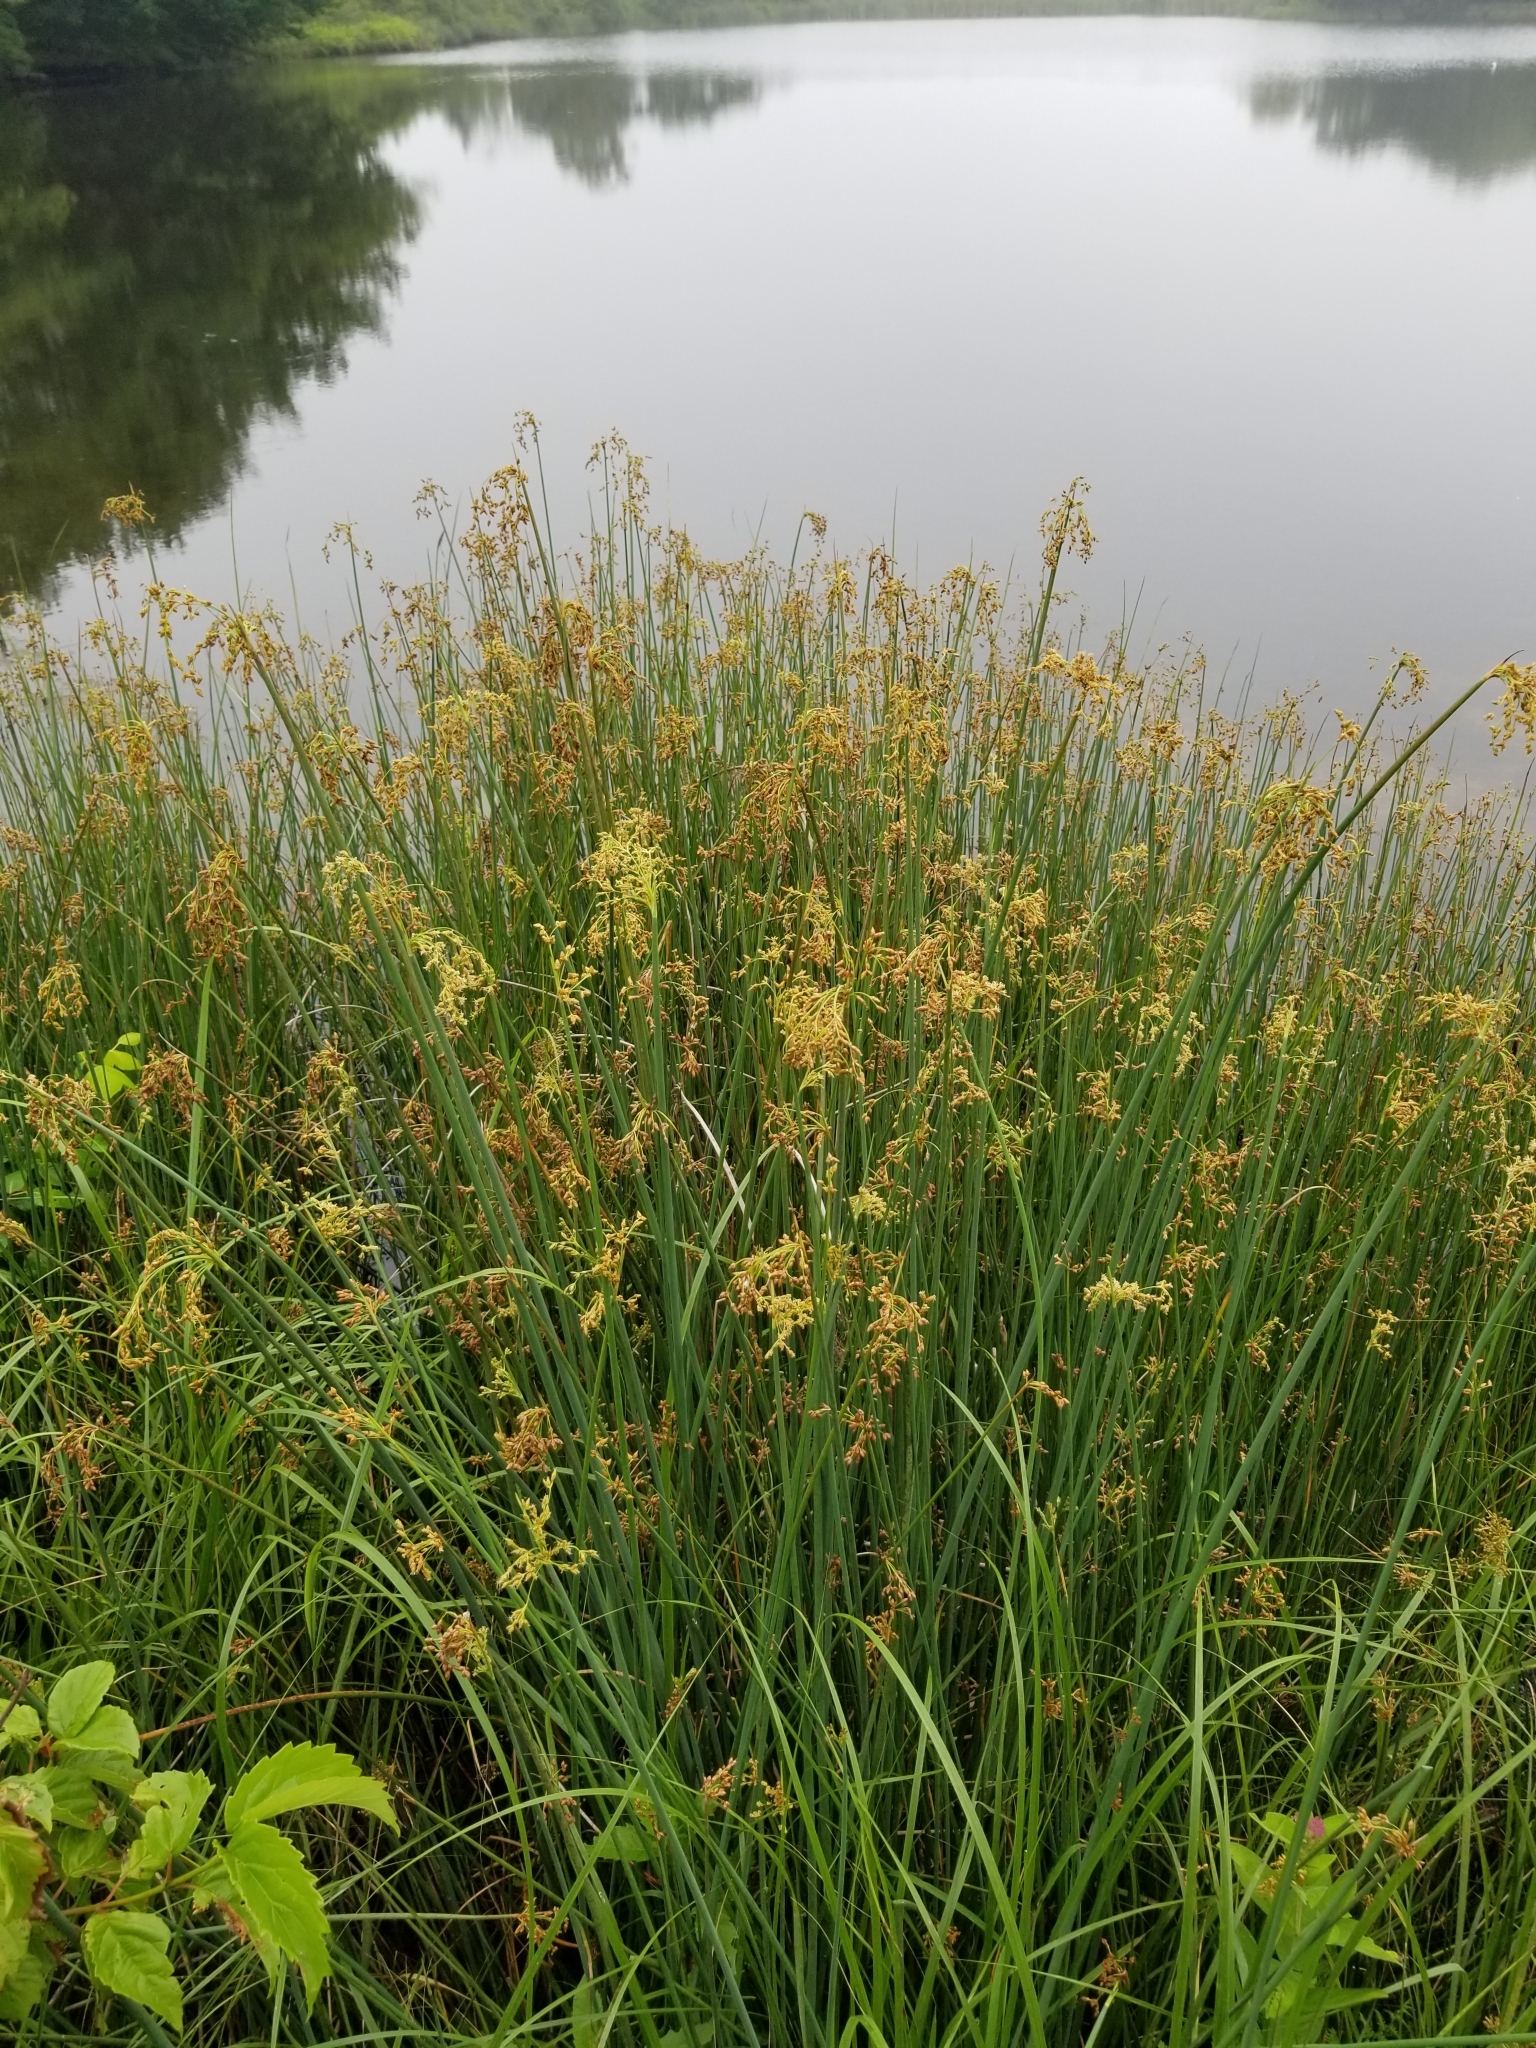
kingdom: Plantae
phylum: Tracheophyta
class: Liliopsida
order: Poales
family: Cyperaceae
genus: Schoenoplectus
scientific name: Schoenoplectus tabernaemontani
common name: Grey club-rush
